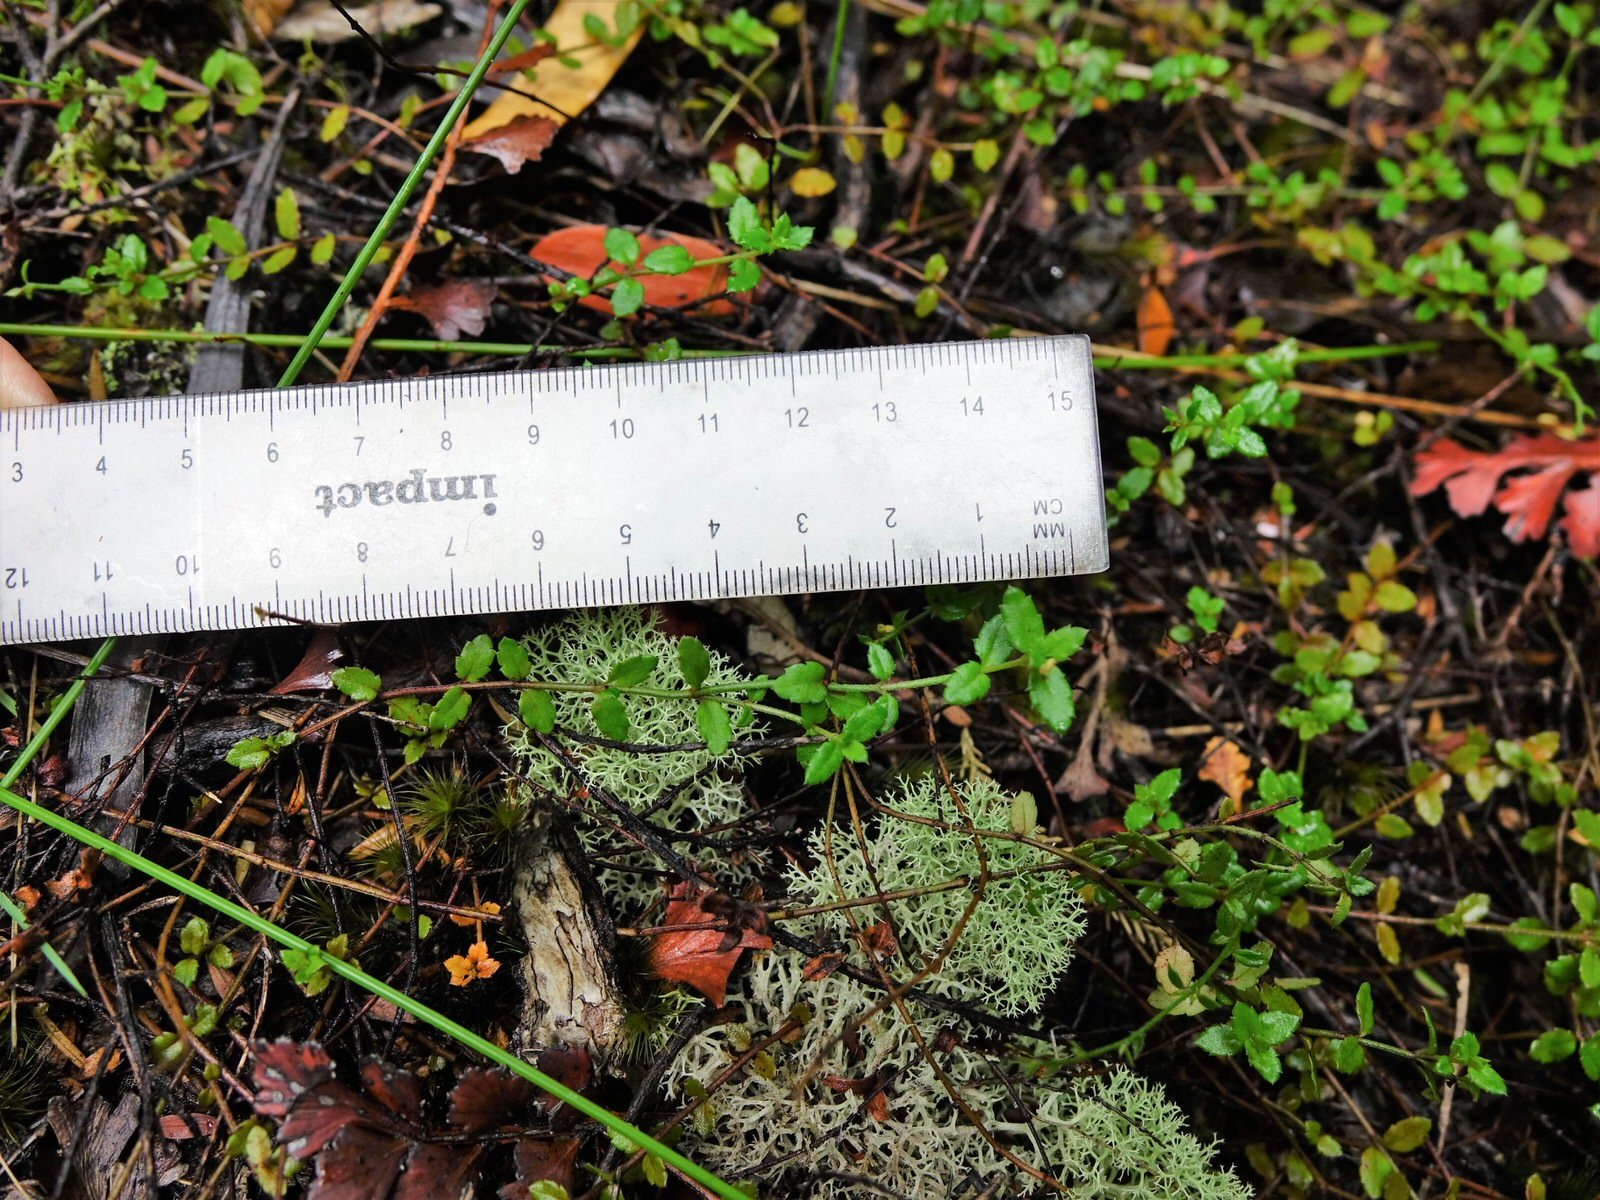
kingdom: Plantae
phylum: Tracheophyta
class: Magnoliopsida
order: Saxifragales
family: Haloragaceae
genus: Gonocarpus
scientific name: Gonocarpus incanus
